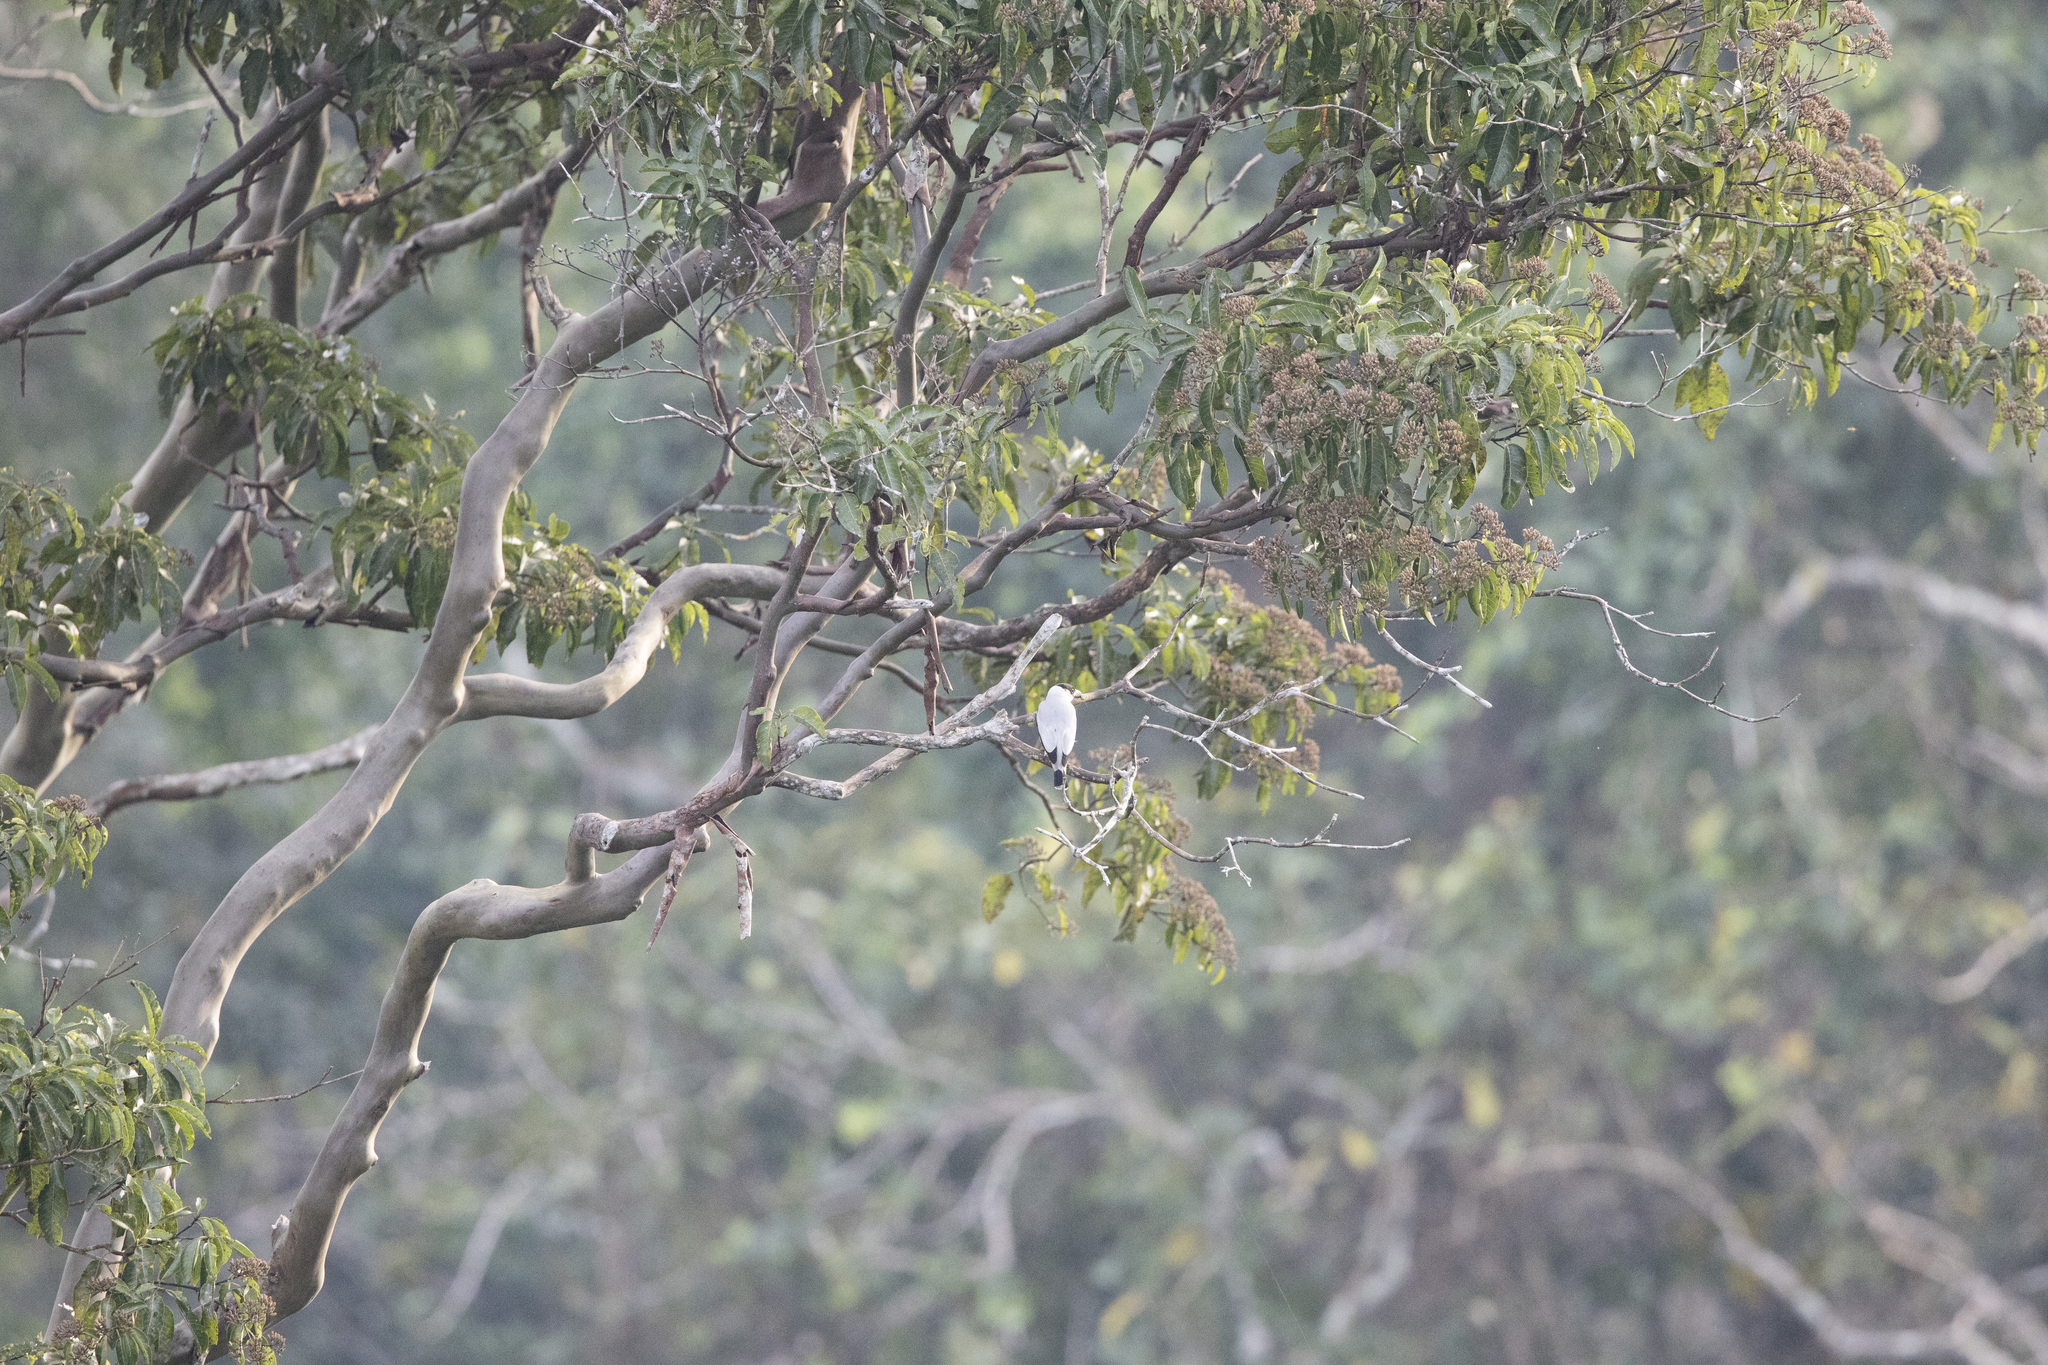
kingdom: Animalia
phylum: Chordata
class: Aves
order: Passeriformes
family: Cotingidae
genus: Tityra
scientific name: Tityra inquisitor
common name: Black-crowned tityra
